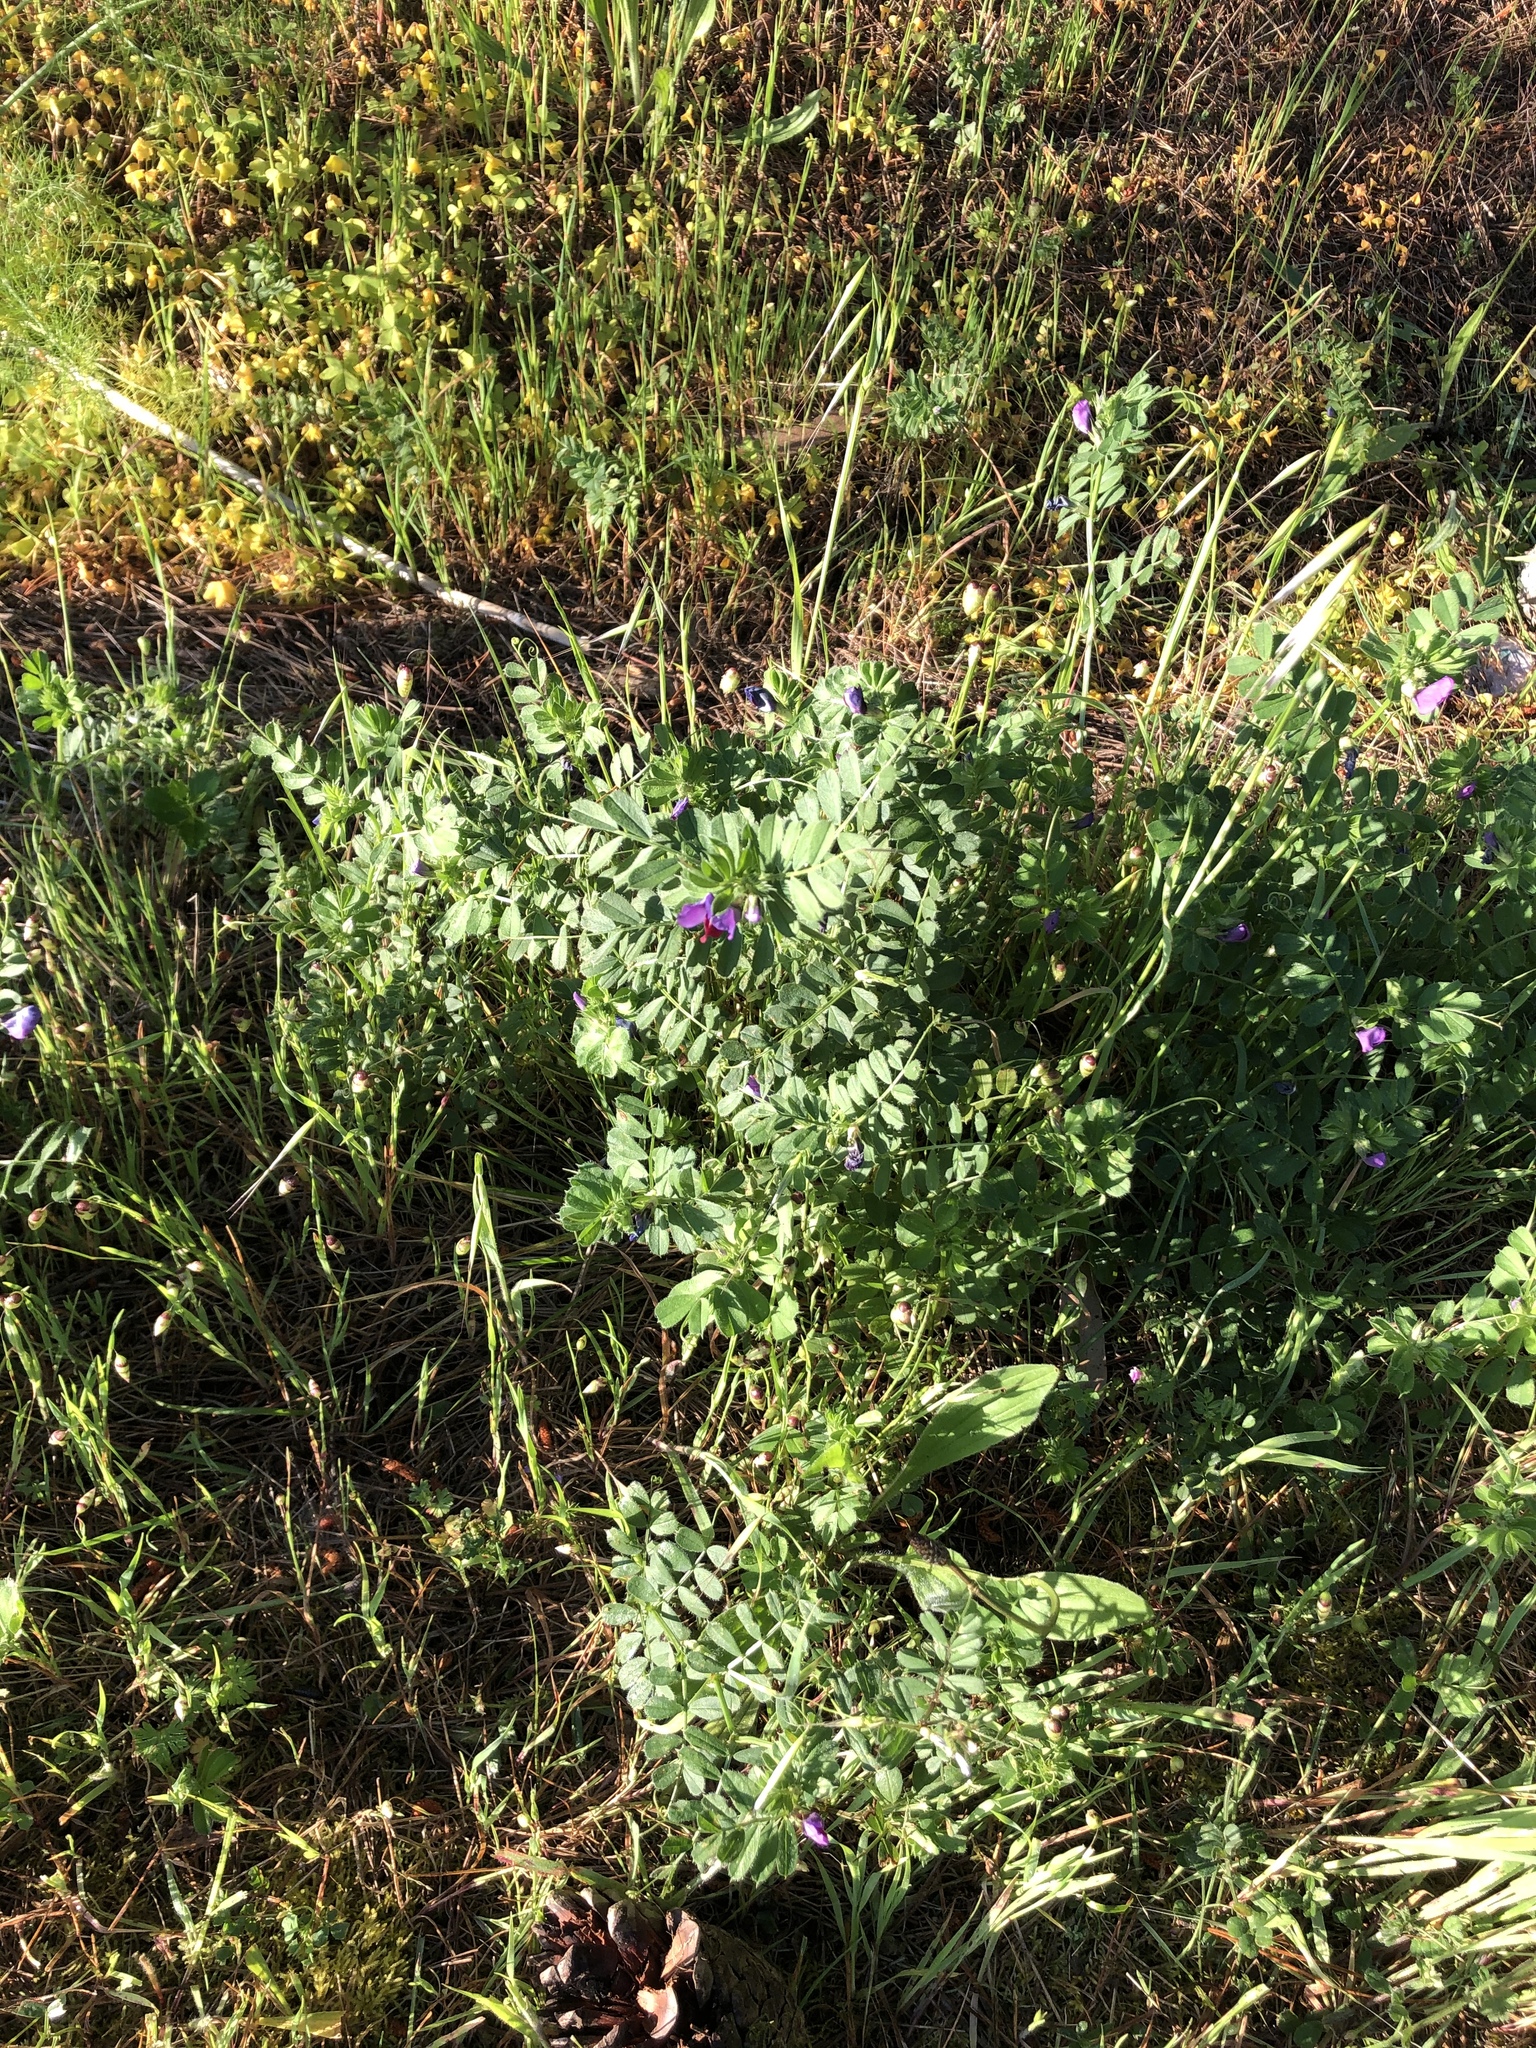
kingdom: Plantae
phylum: Tracheophyta
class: Magnoliopsida
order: Fabales
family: Fabaceae
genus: Vicia
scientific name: Vicia sativa
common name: Garden vetch
